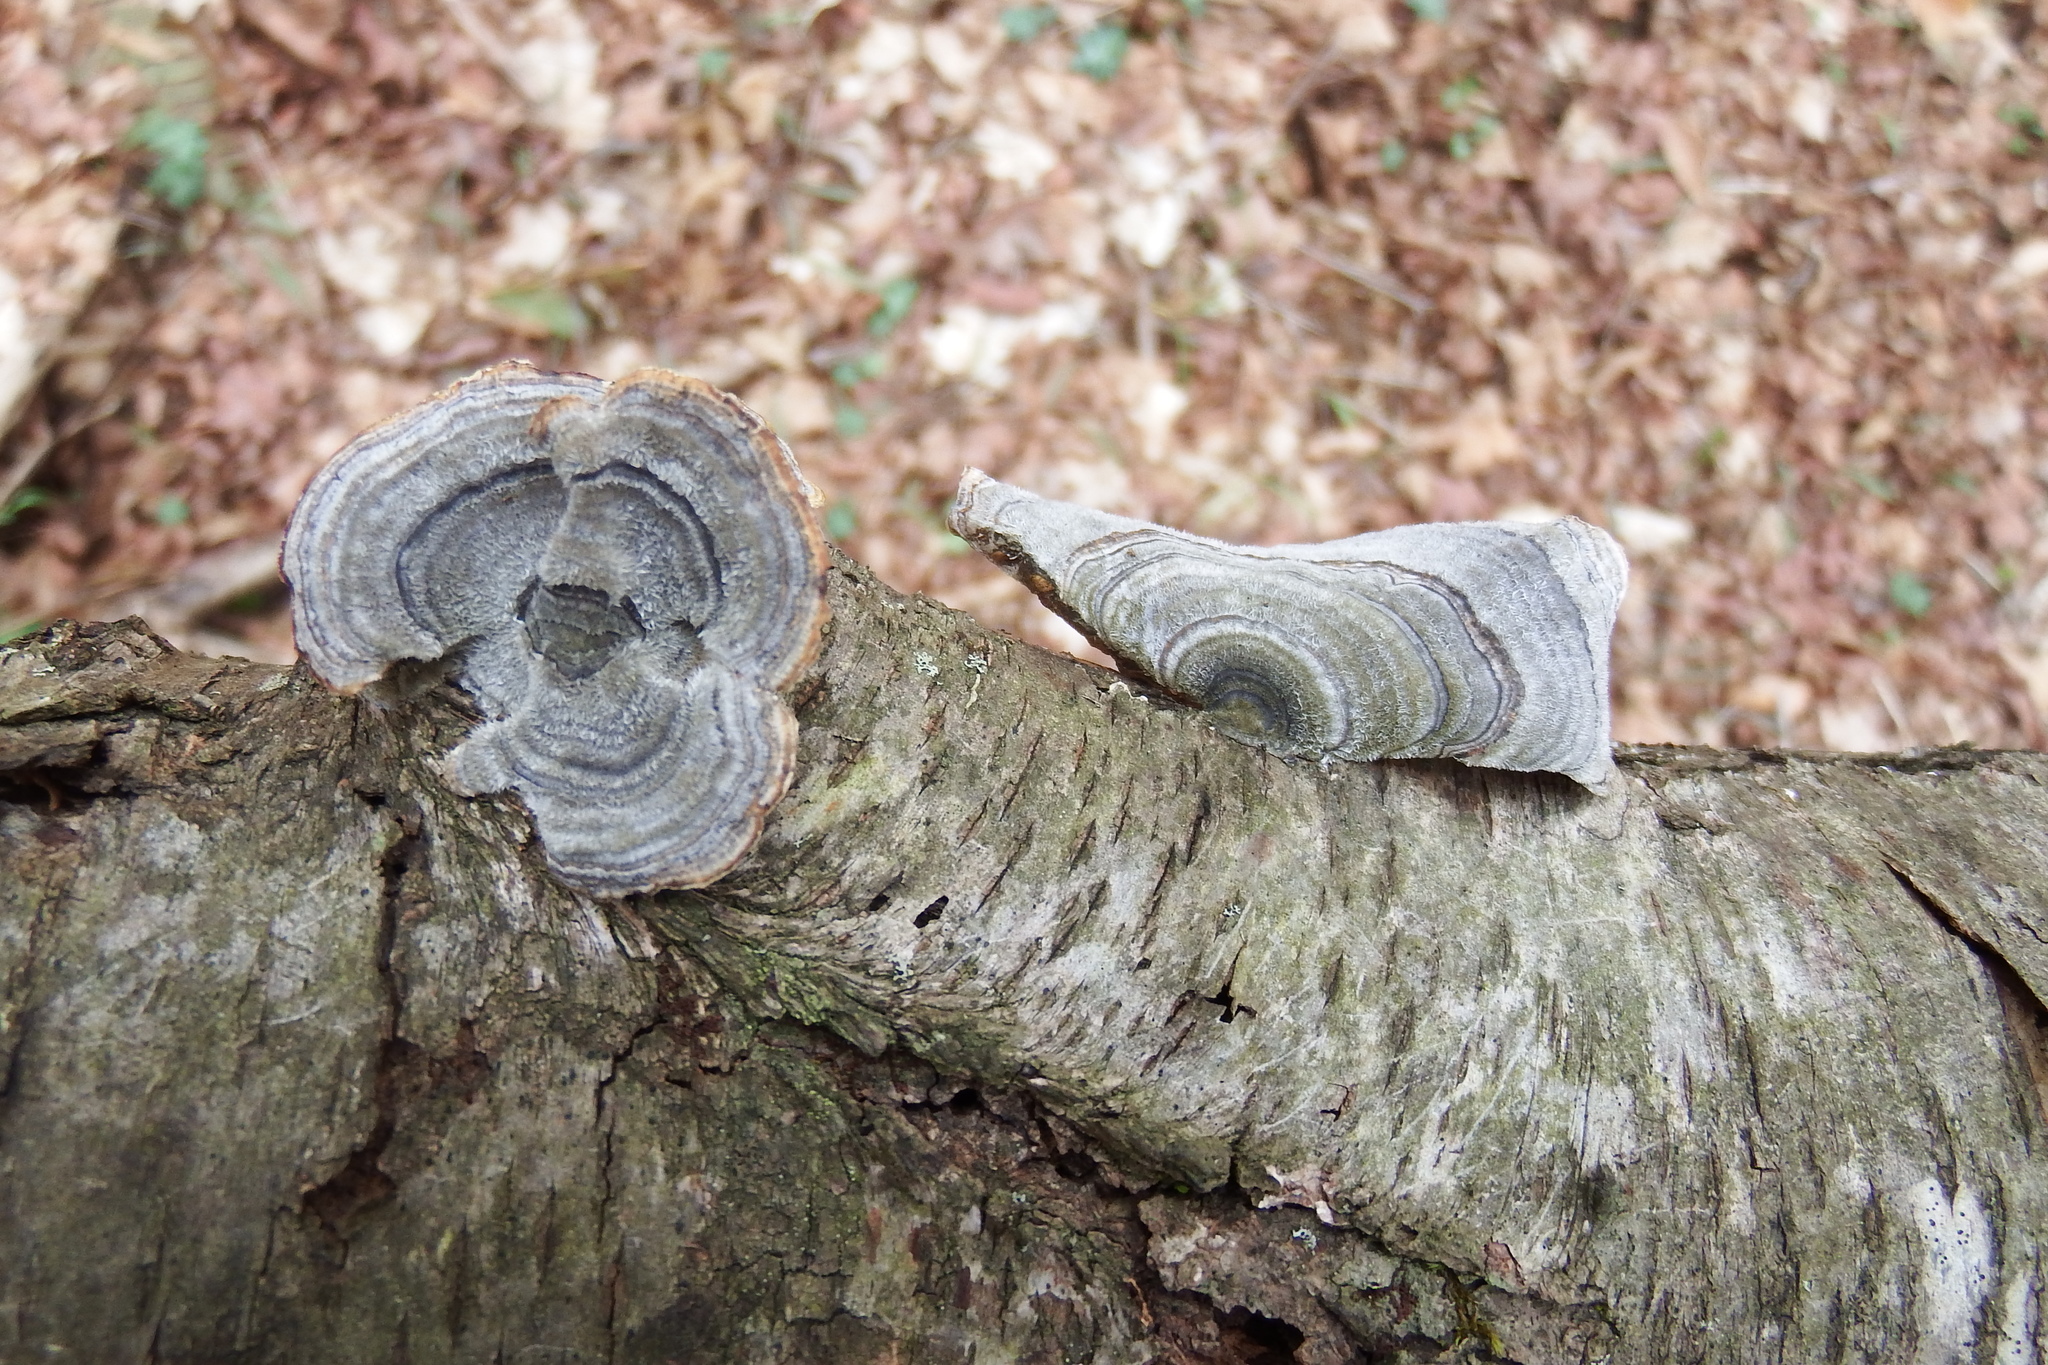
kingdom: Fungi
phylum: Basidiomycota
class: Agaricomycetes
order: Polyporales
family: Polyporaceae
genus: Trametes
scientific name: Trametes versicolor
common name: Turkeytail
